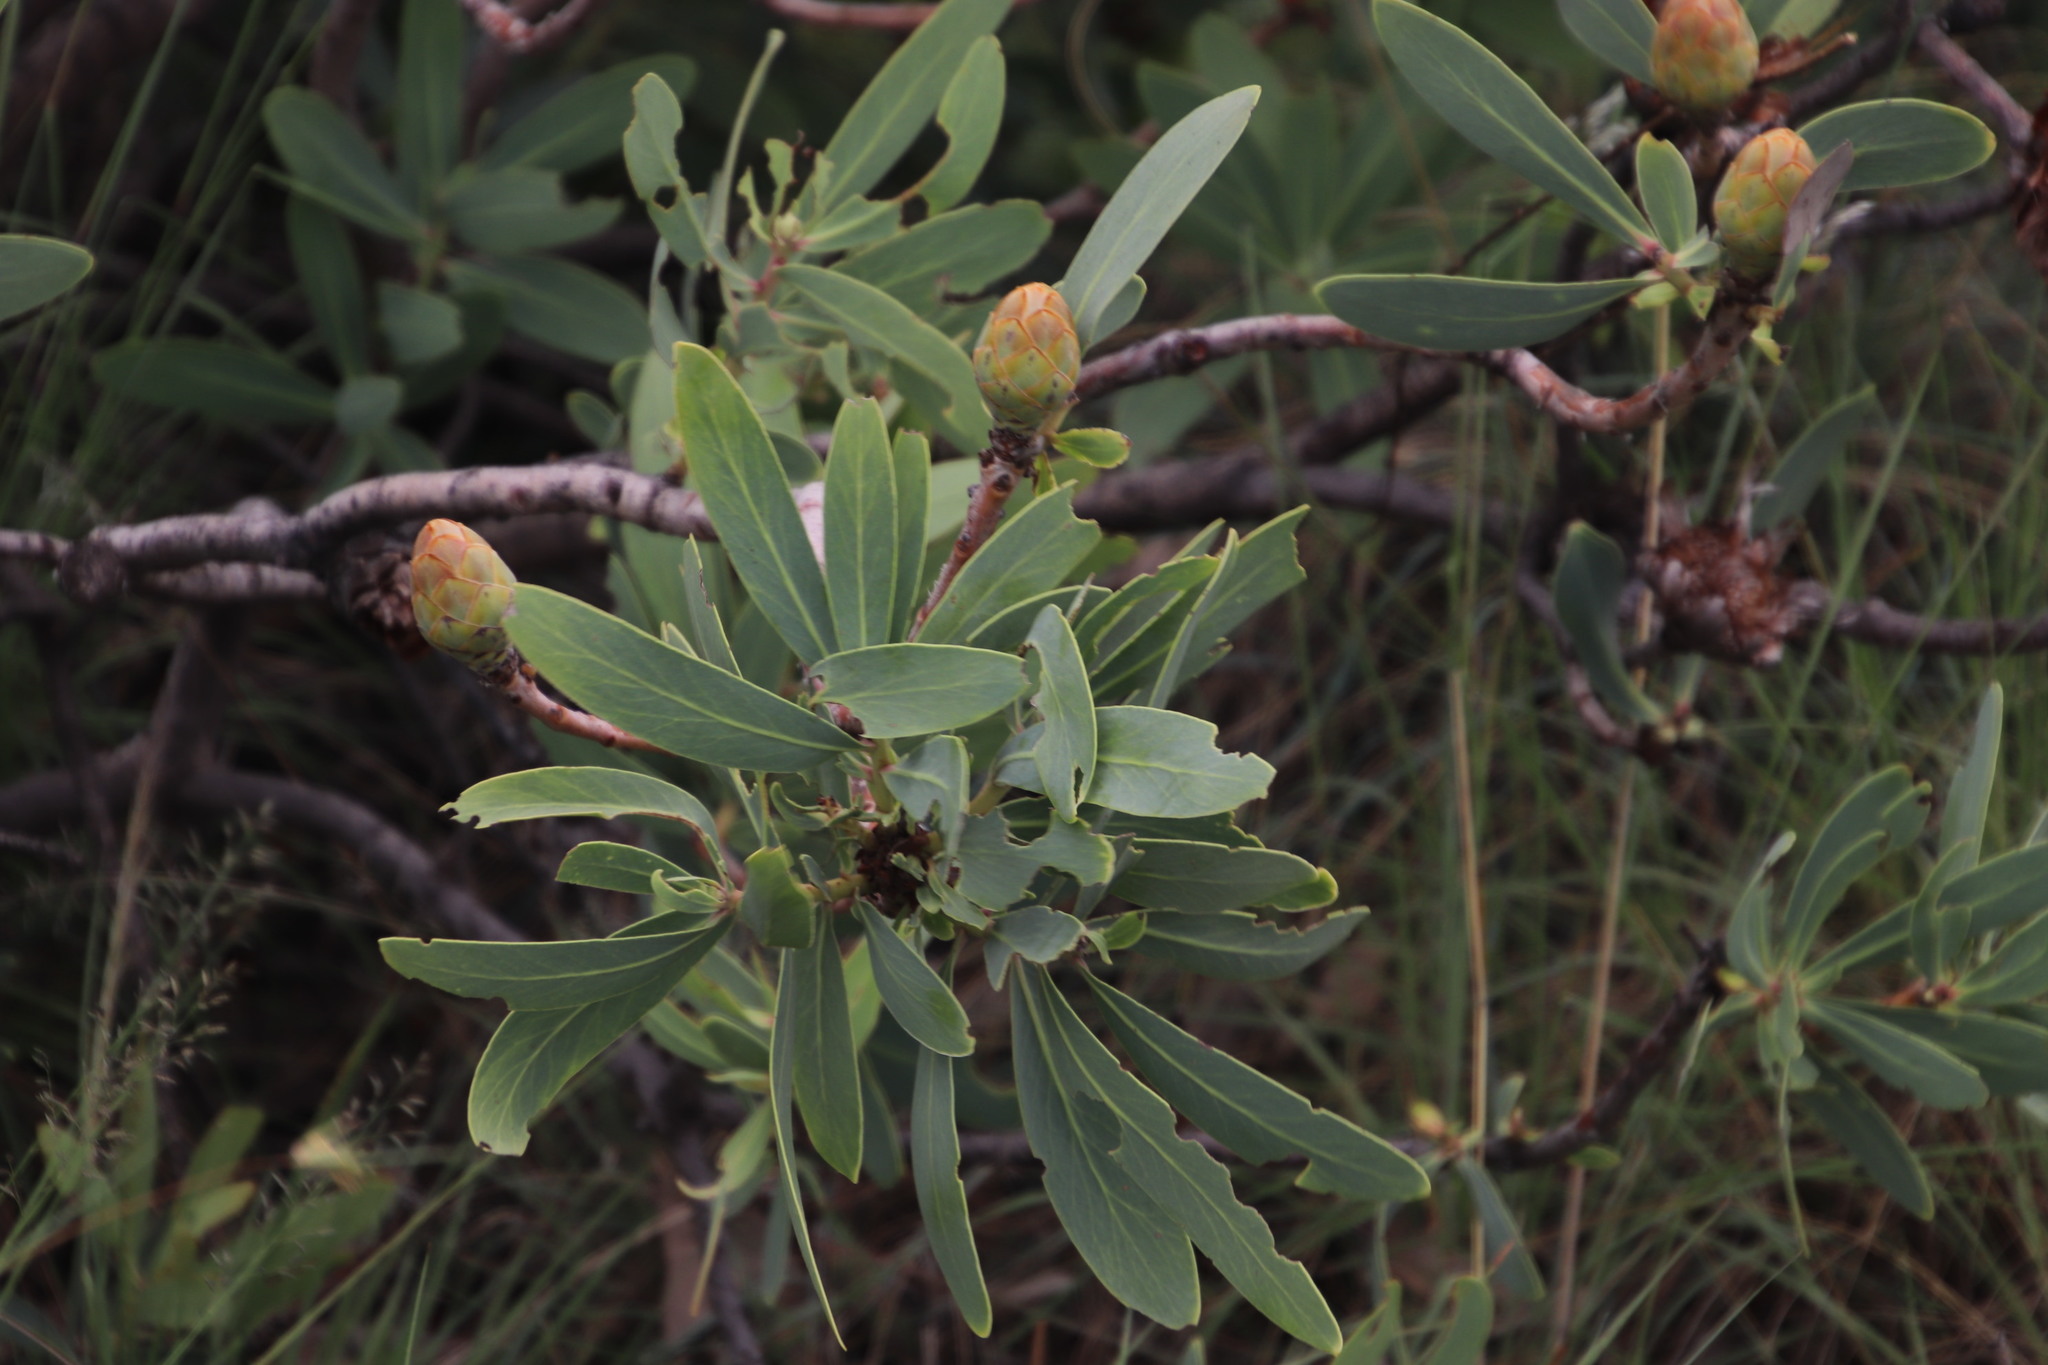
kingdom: Plantae
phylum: Tracheophyta
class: Magnoliopsida
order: Proteales
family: Proteaceae
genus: Protea
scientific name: Protea
